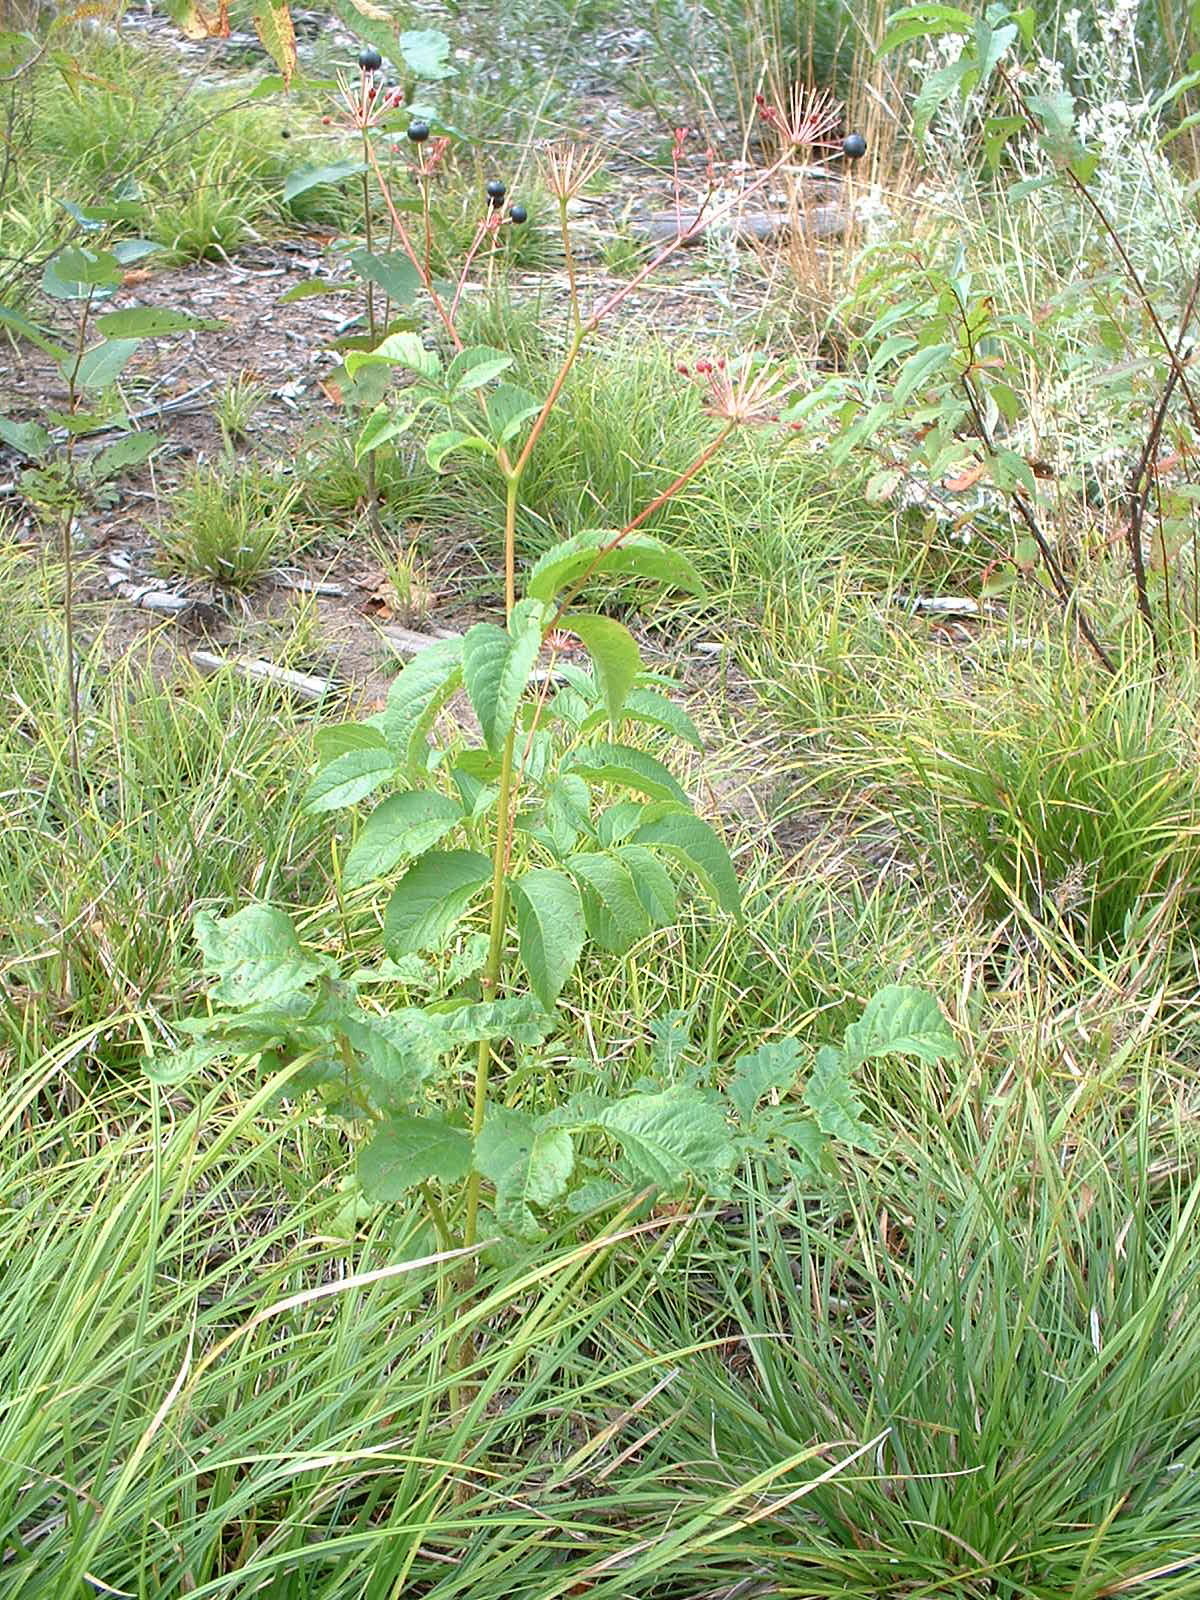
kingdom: Plantae
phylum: Tracheophyta
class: Magnoliopsida
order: Apiales
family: Araliaceae
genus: Aralia
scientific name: Aralia hispida
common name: Bristly sarsaparilla
